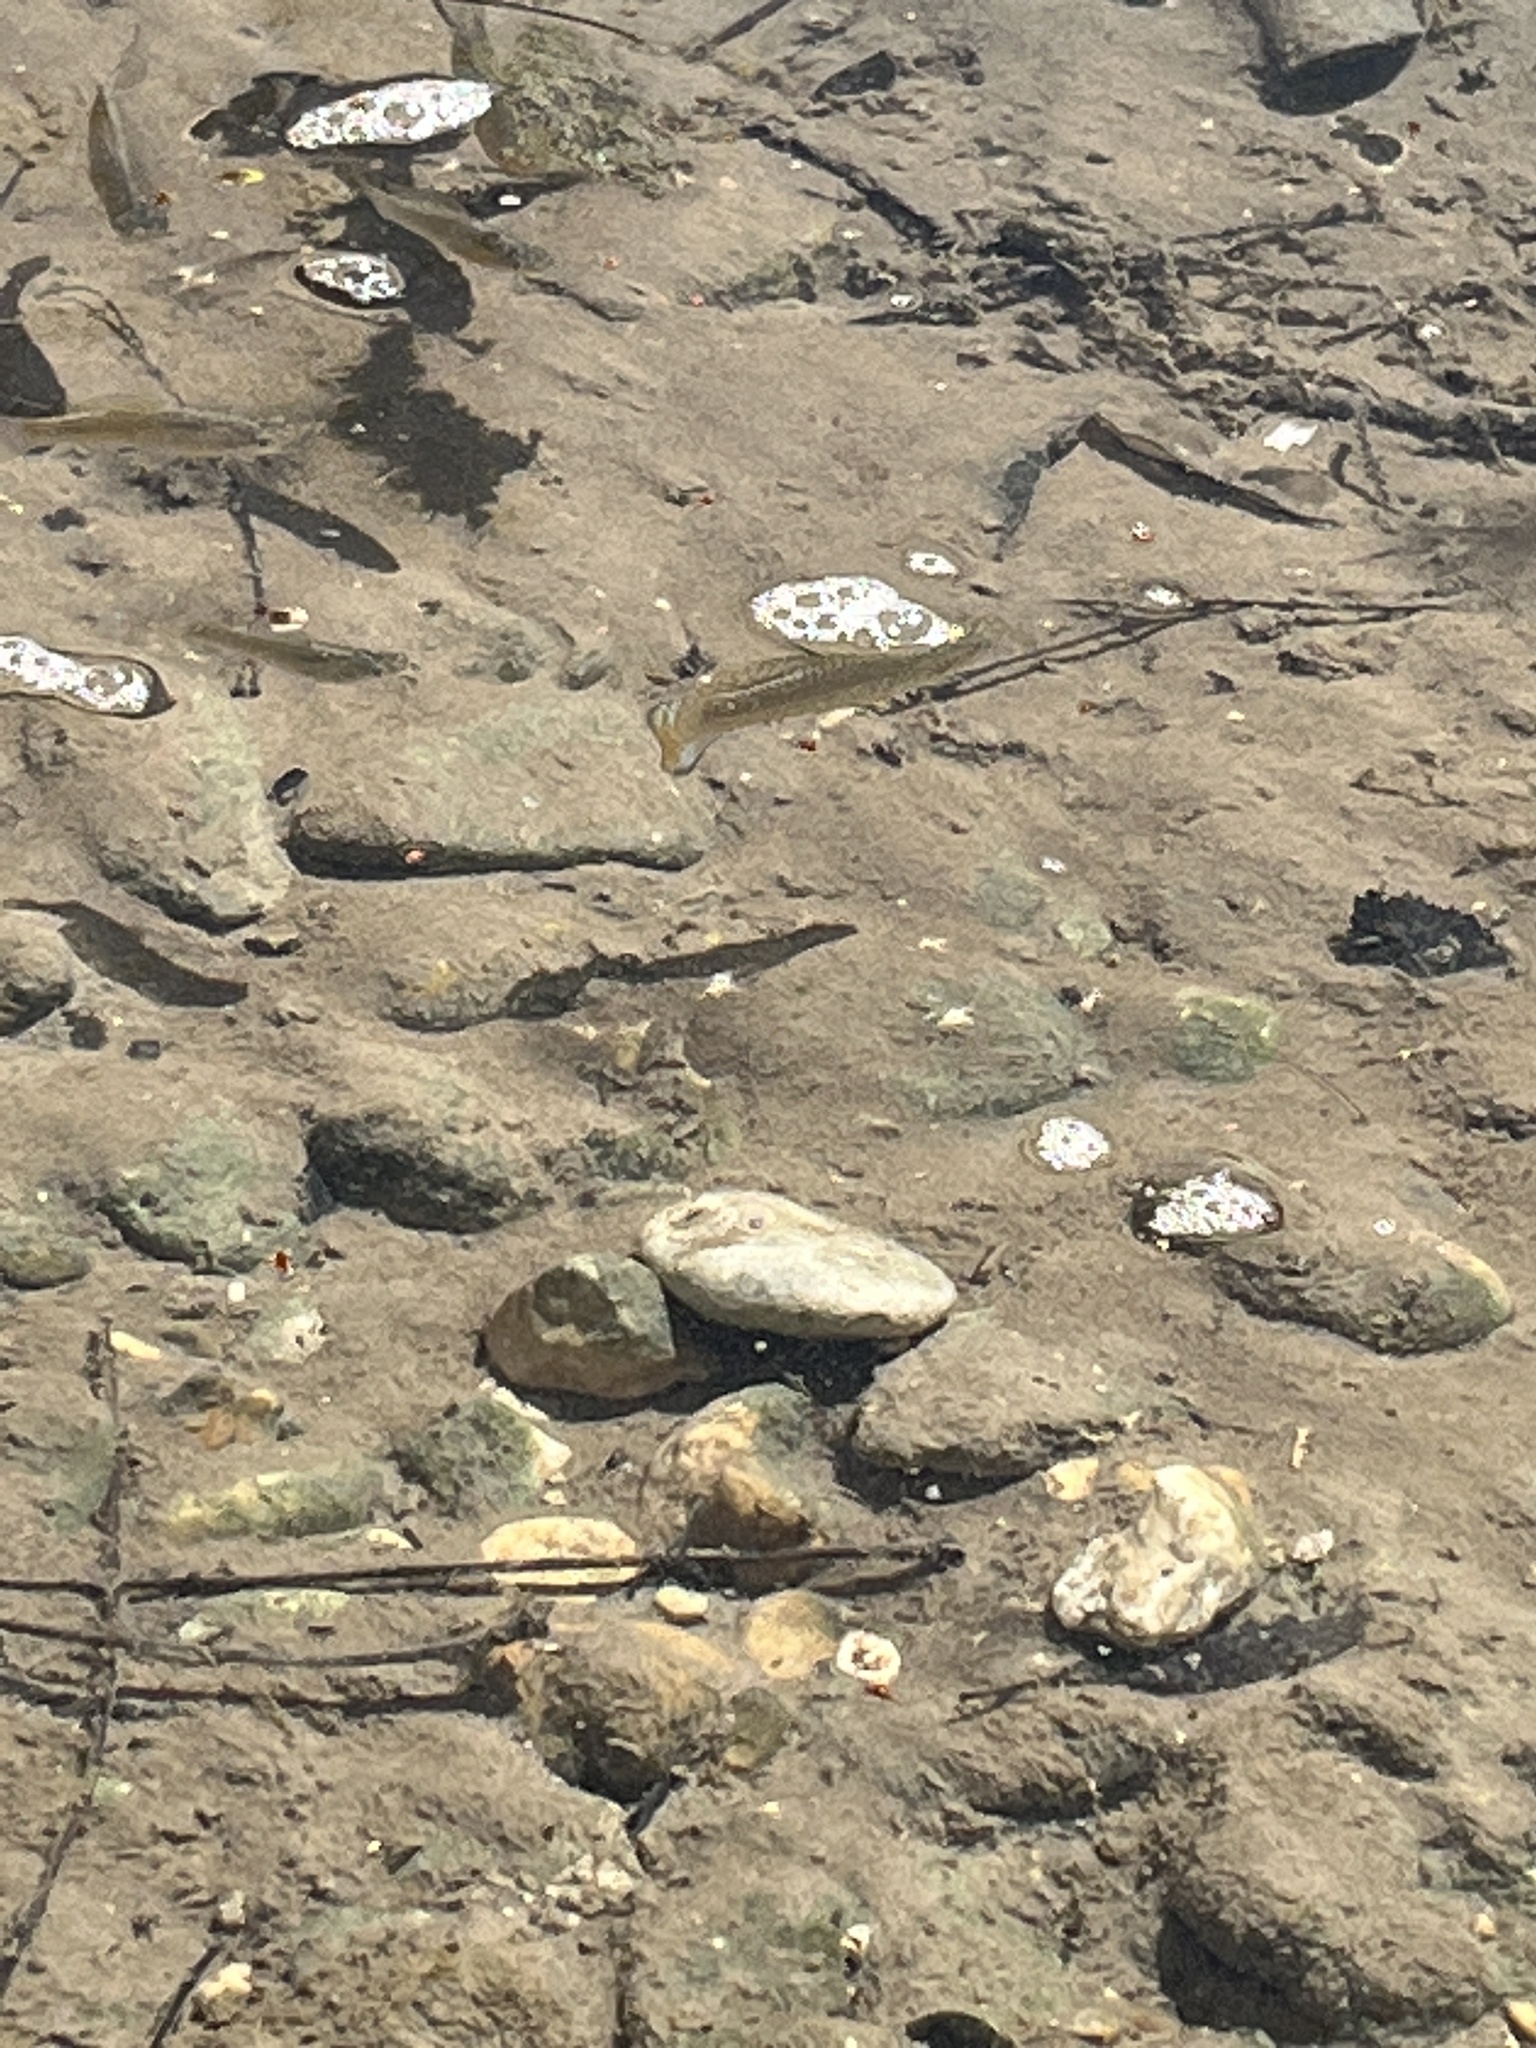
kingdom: Animalia
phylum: Chordata
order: Cyprinodontiformes
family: Poeciliidae
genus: Poecilia
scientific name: Poecilia latipinna
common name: Sailfin molly
